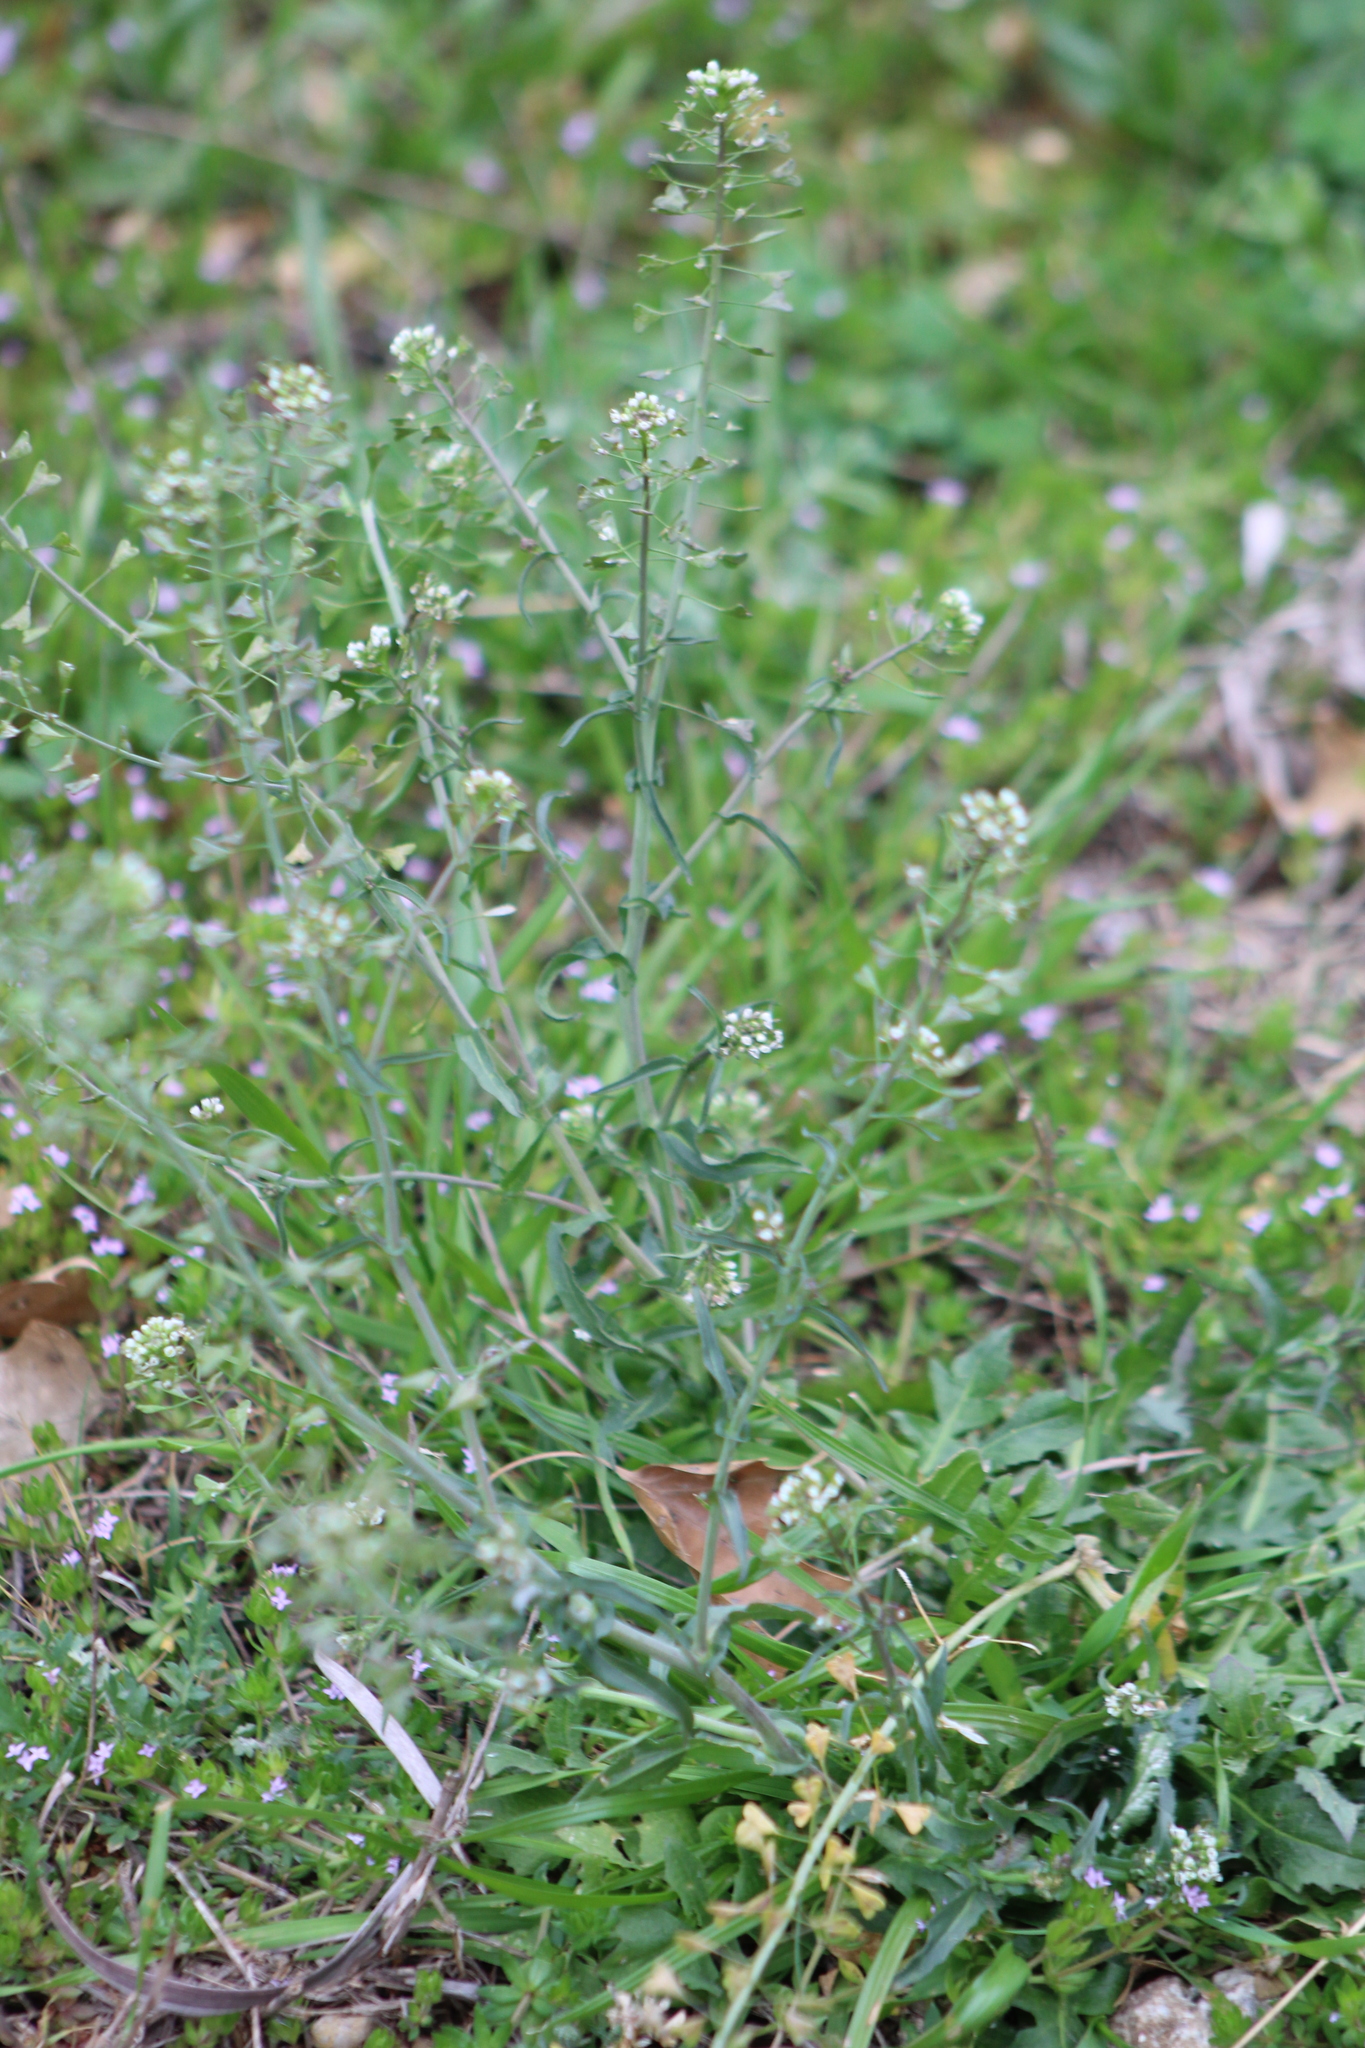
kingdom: Plantae
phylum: Tracheophyta
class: Magnoliopsida
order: Brassicales
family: Brassicaceae
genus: Capsella
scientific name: Capsella bursa-pastoris
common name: Shepherd's purse
